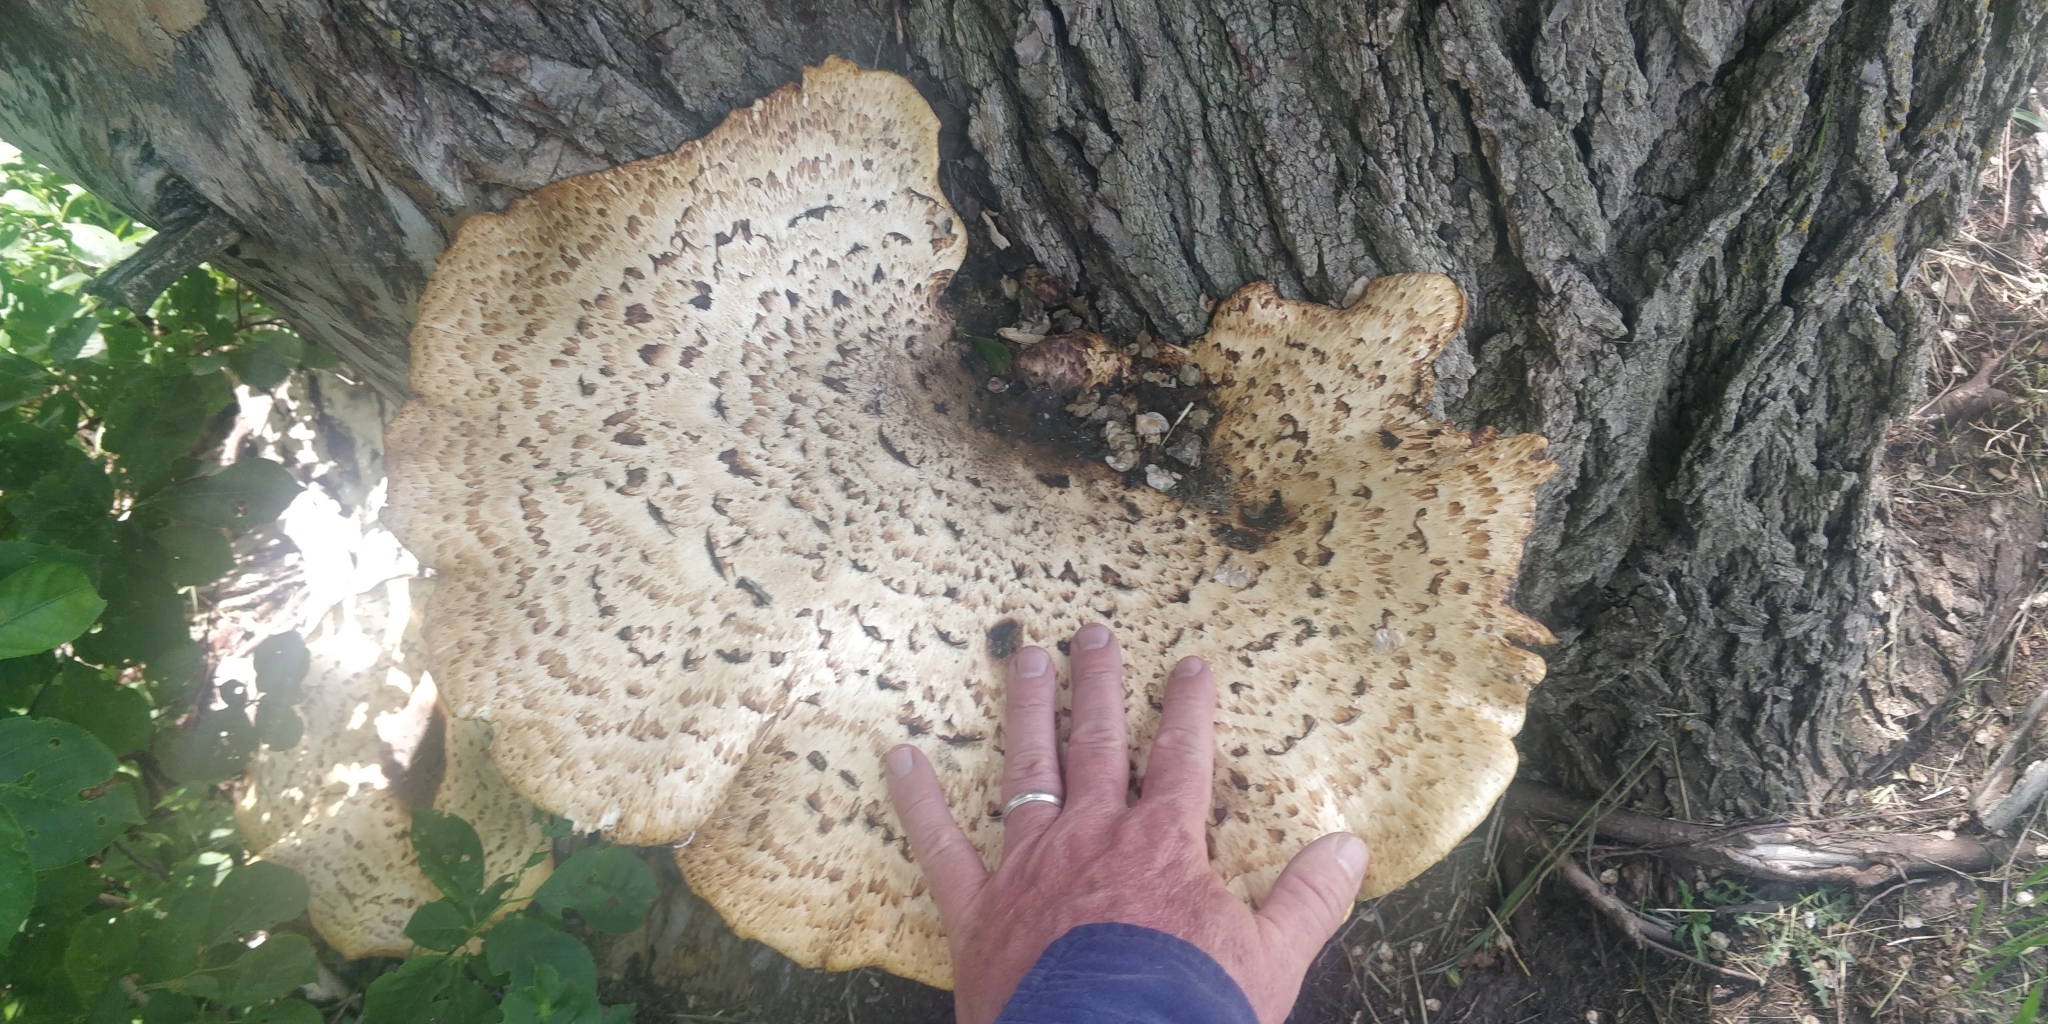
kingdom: Fungi
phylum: Basidiomycota
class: Agaricomycetes
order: Polyporales
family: Polyporaceae
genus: Cerioporus
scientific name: Cerioporus squamosus
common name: Dryad's saddle
